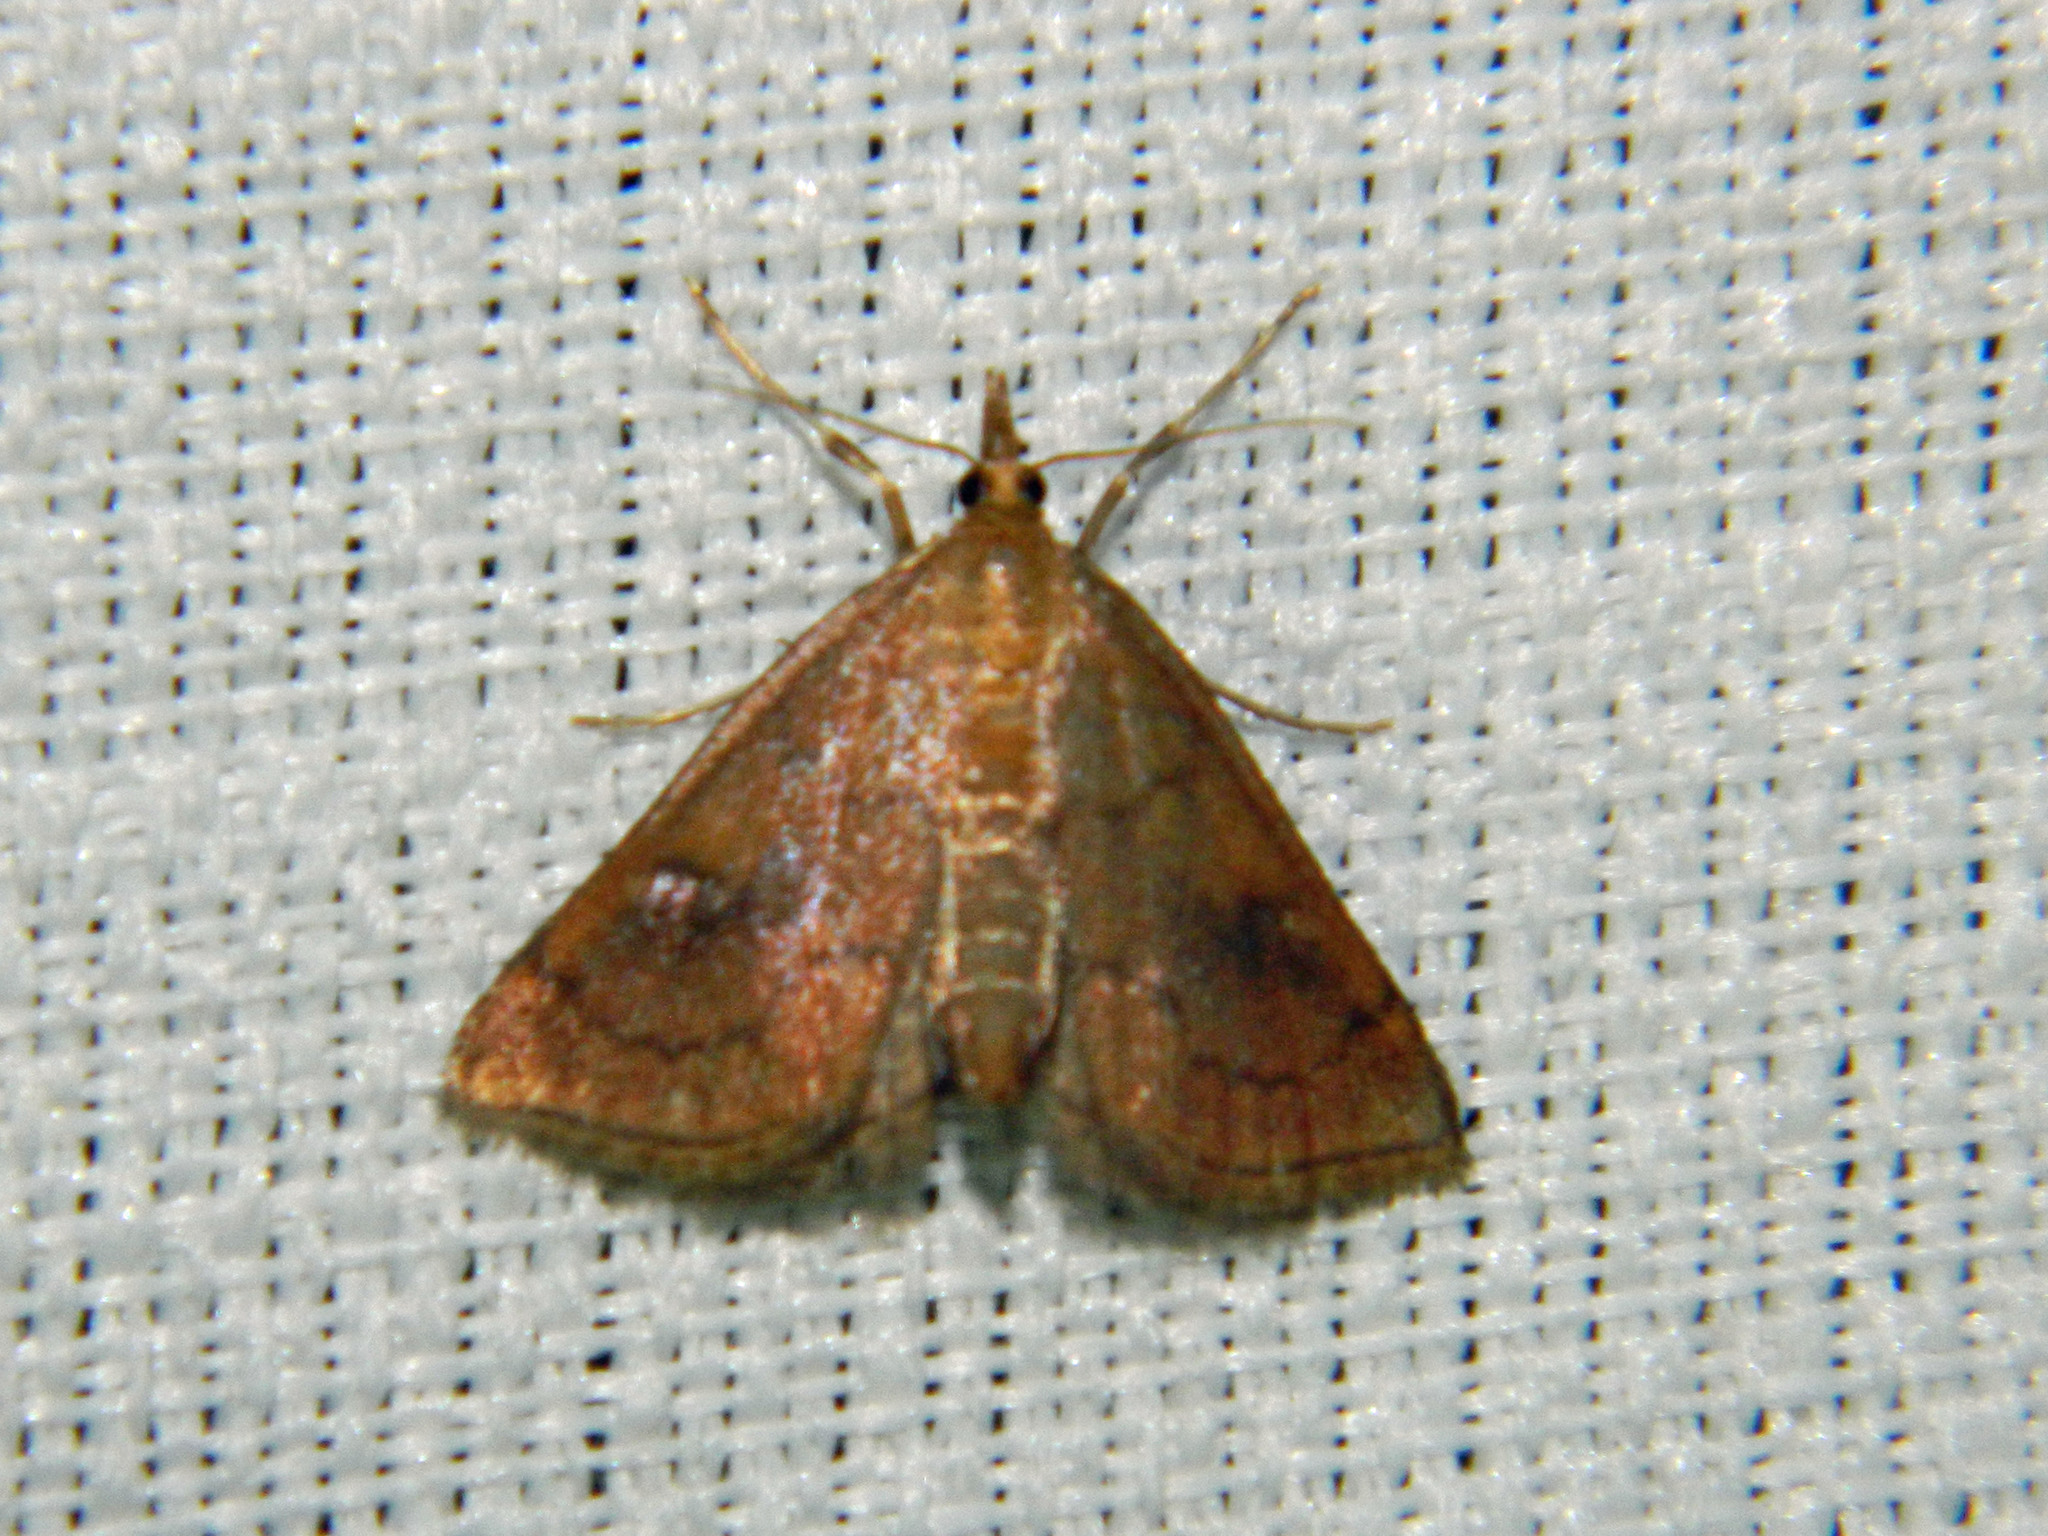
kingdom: Animalia
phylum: Arthropoda
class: Insecta
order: Lepidoptera
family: Crambidae
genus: Fumibotys
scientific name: Fumibotys fumalis
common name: Mint root borer moth
